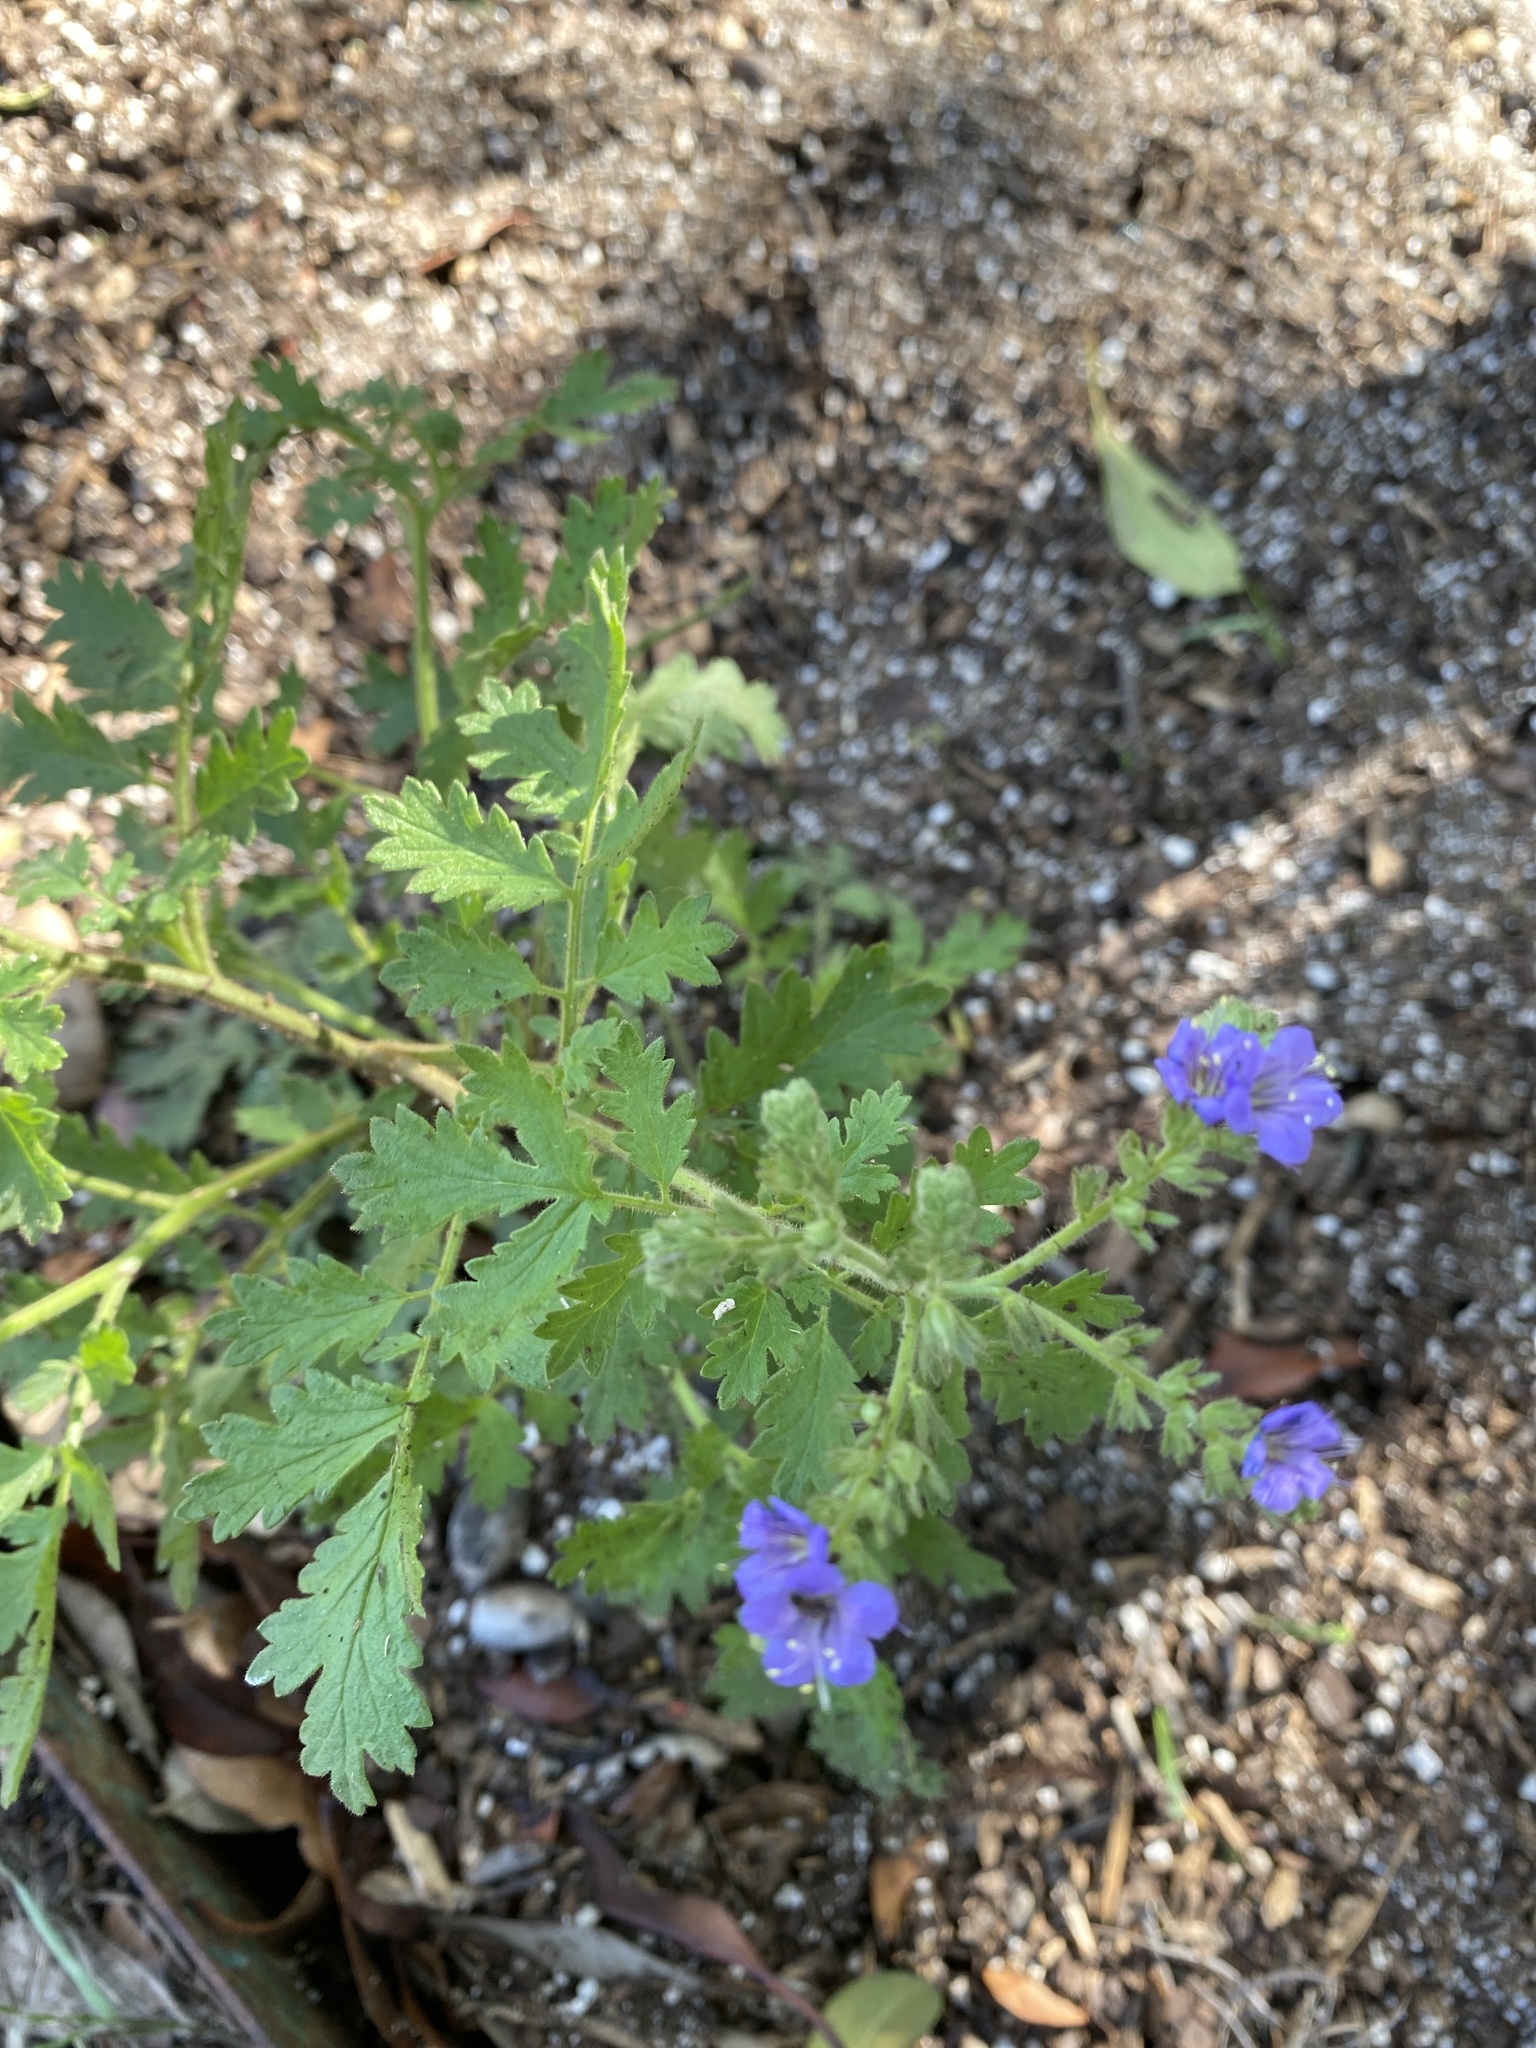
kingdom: Plantae
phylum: Tracheophyta
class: Magnoliopsida
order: Boraginales
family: Hydrophyllaceae
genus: Phacelia
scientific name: Phacelia congesta
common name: Blue curls
